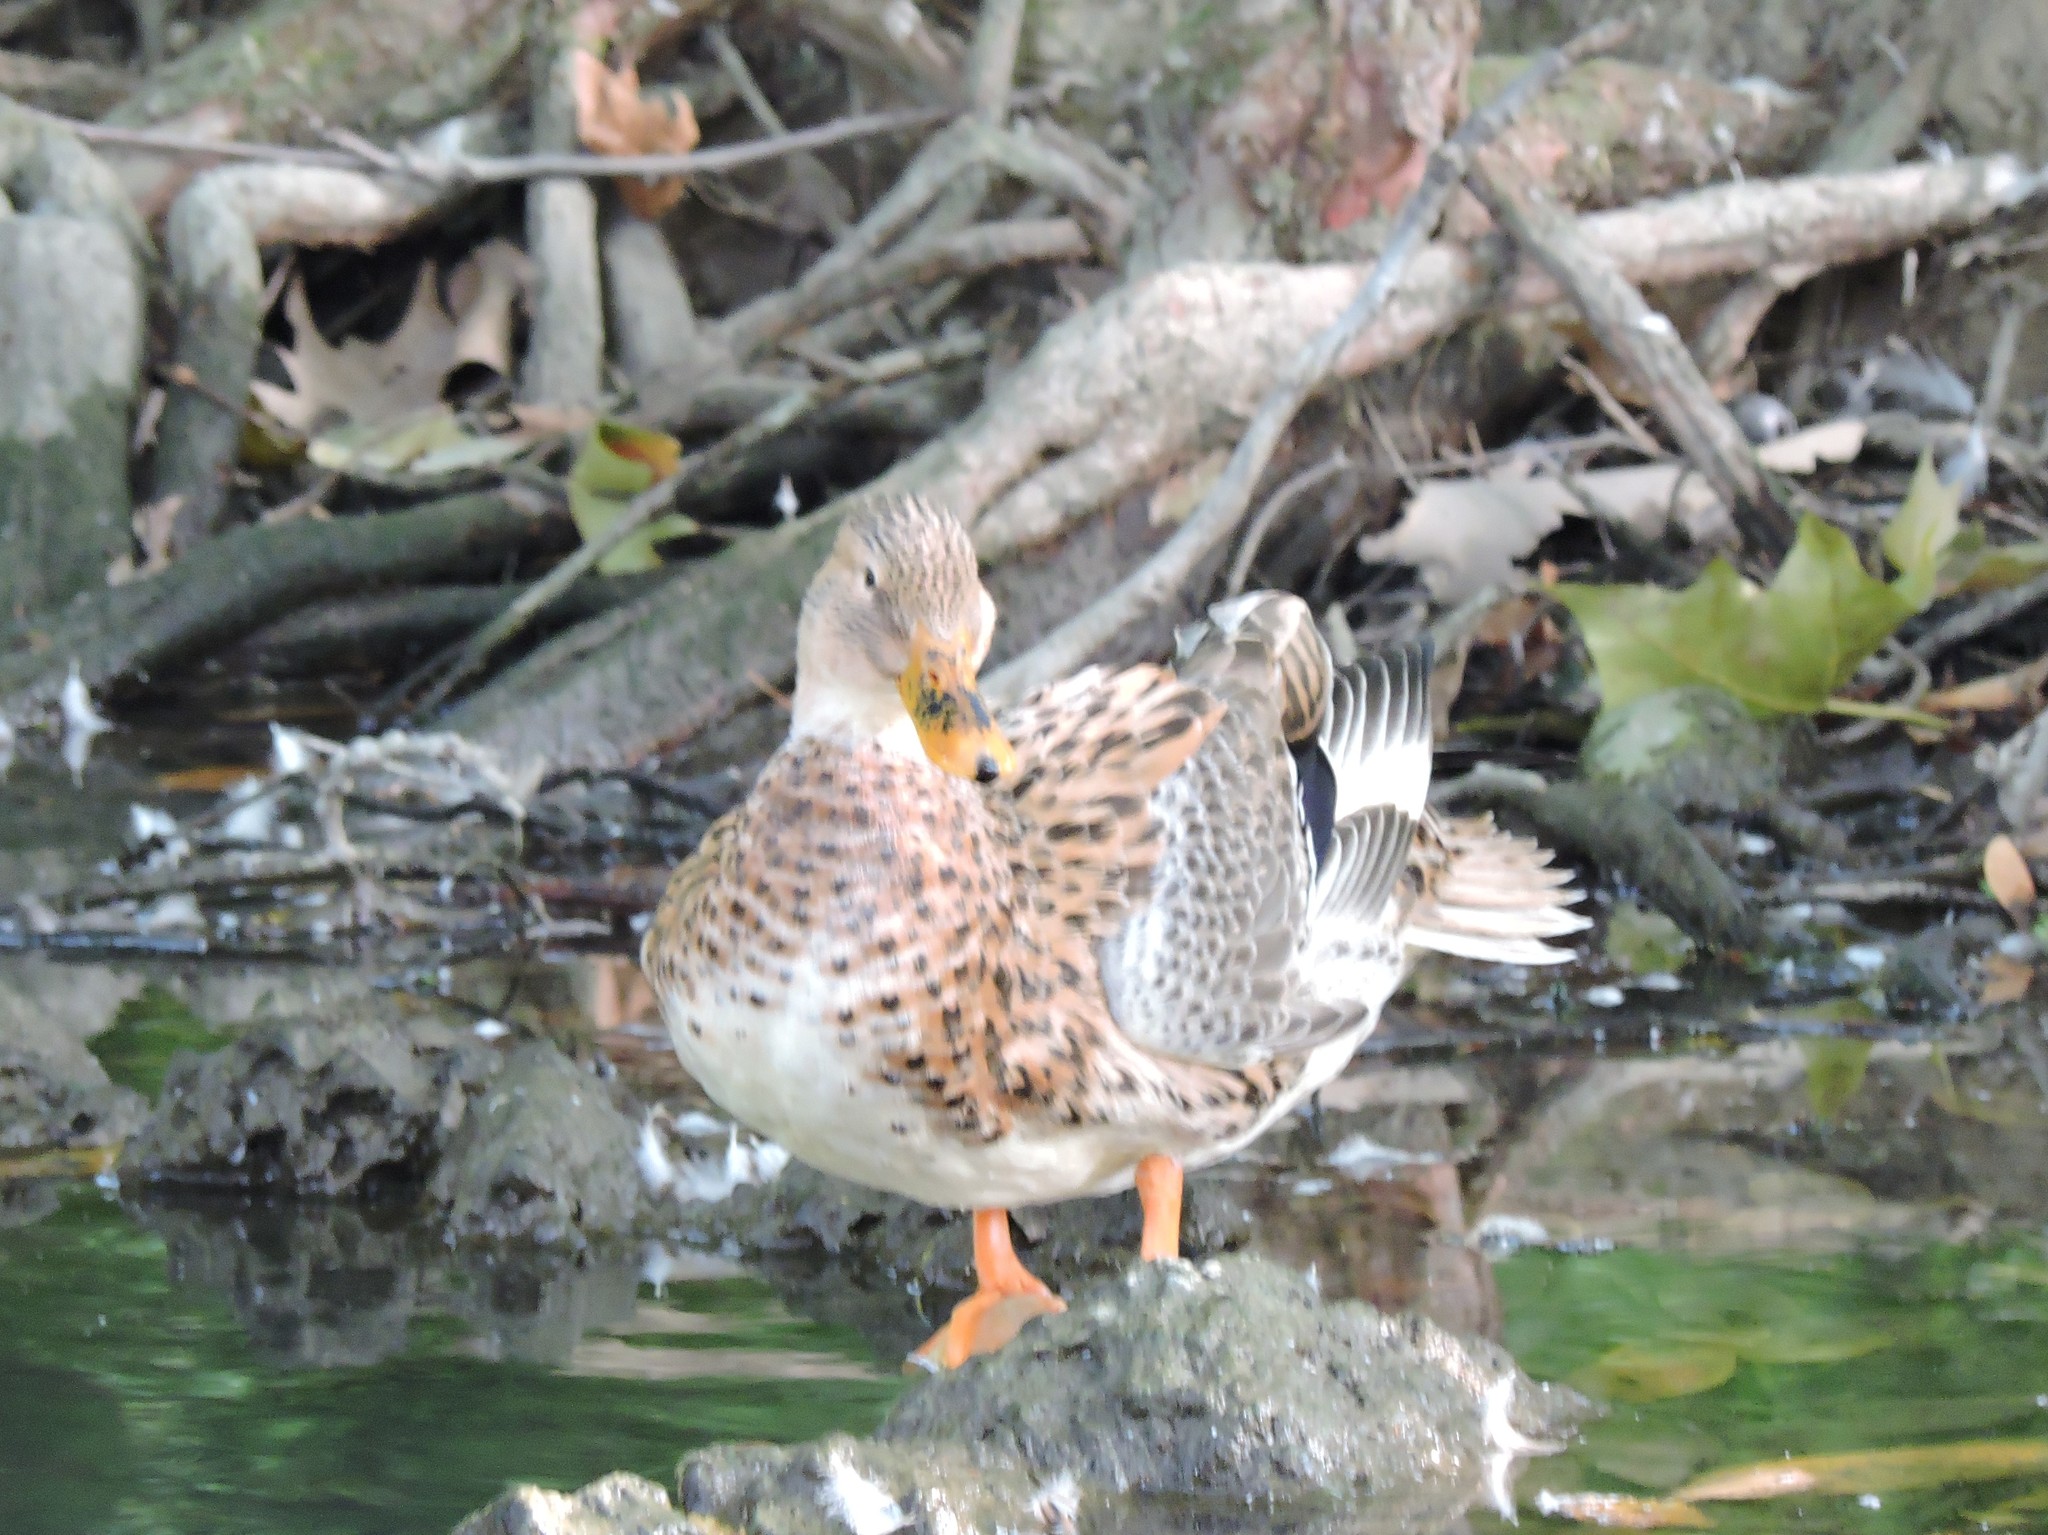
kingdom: Animalia
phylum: Chordata
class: Aves
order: Anseriformes
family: Anatidae
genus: Anas
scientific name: Anas platyrhynchos
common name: Mallard
